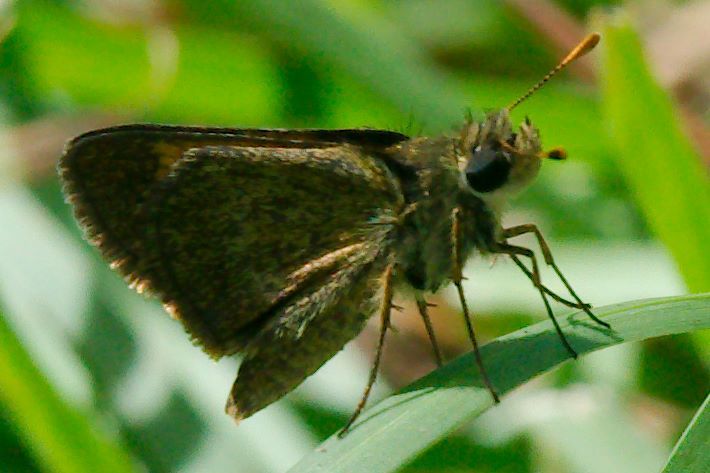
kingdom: Animalia
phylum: Arthropoda
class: Insecta
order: Lepidoptera
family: Hesperiidae
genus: Polites
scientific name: Polites baracoa
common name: Baracoa skipper
